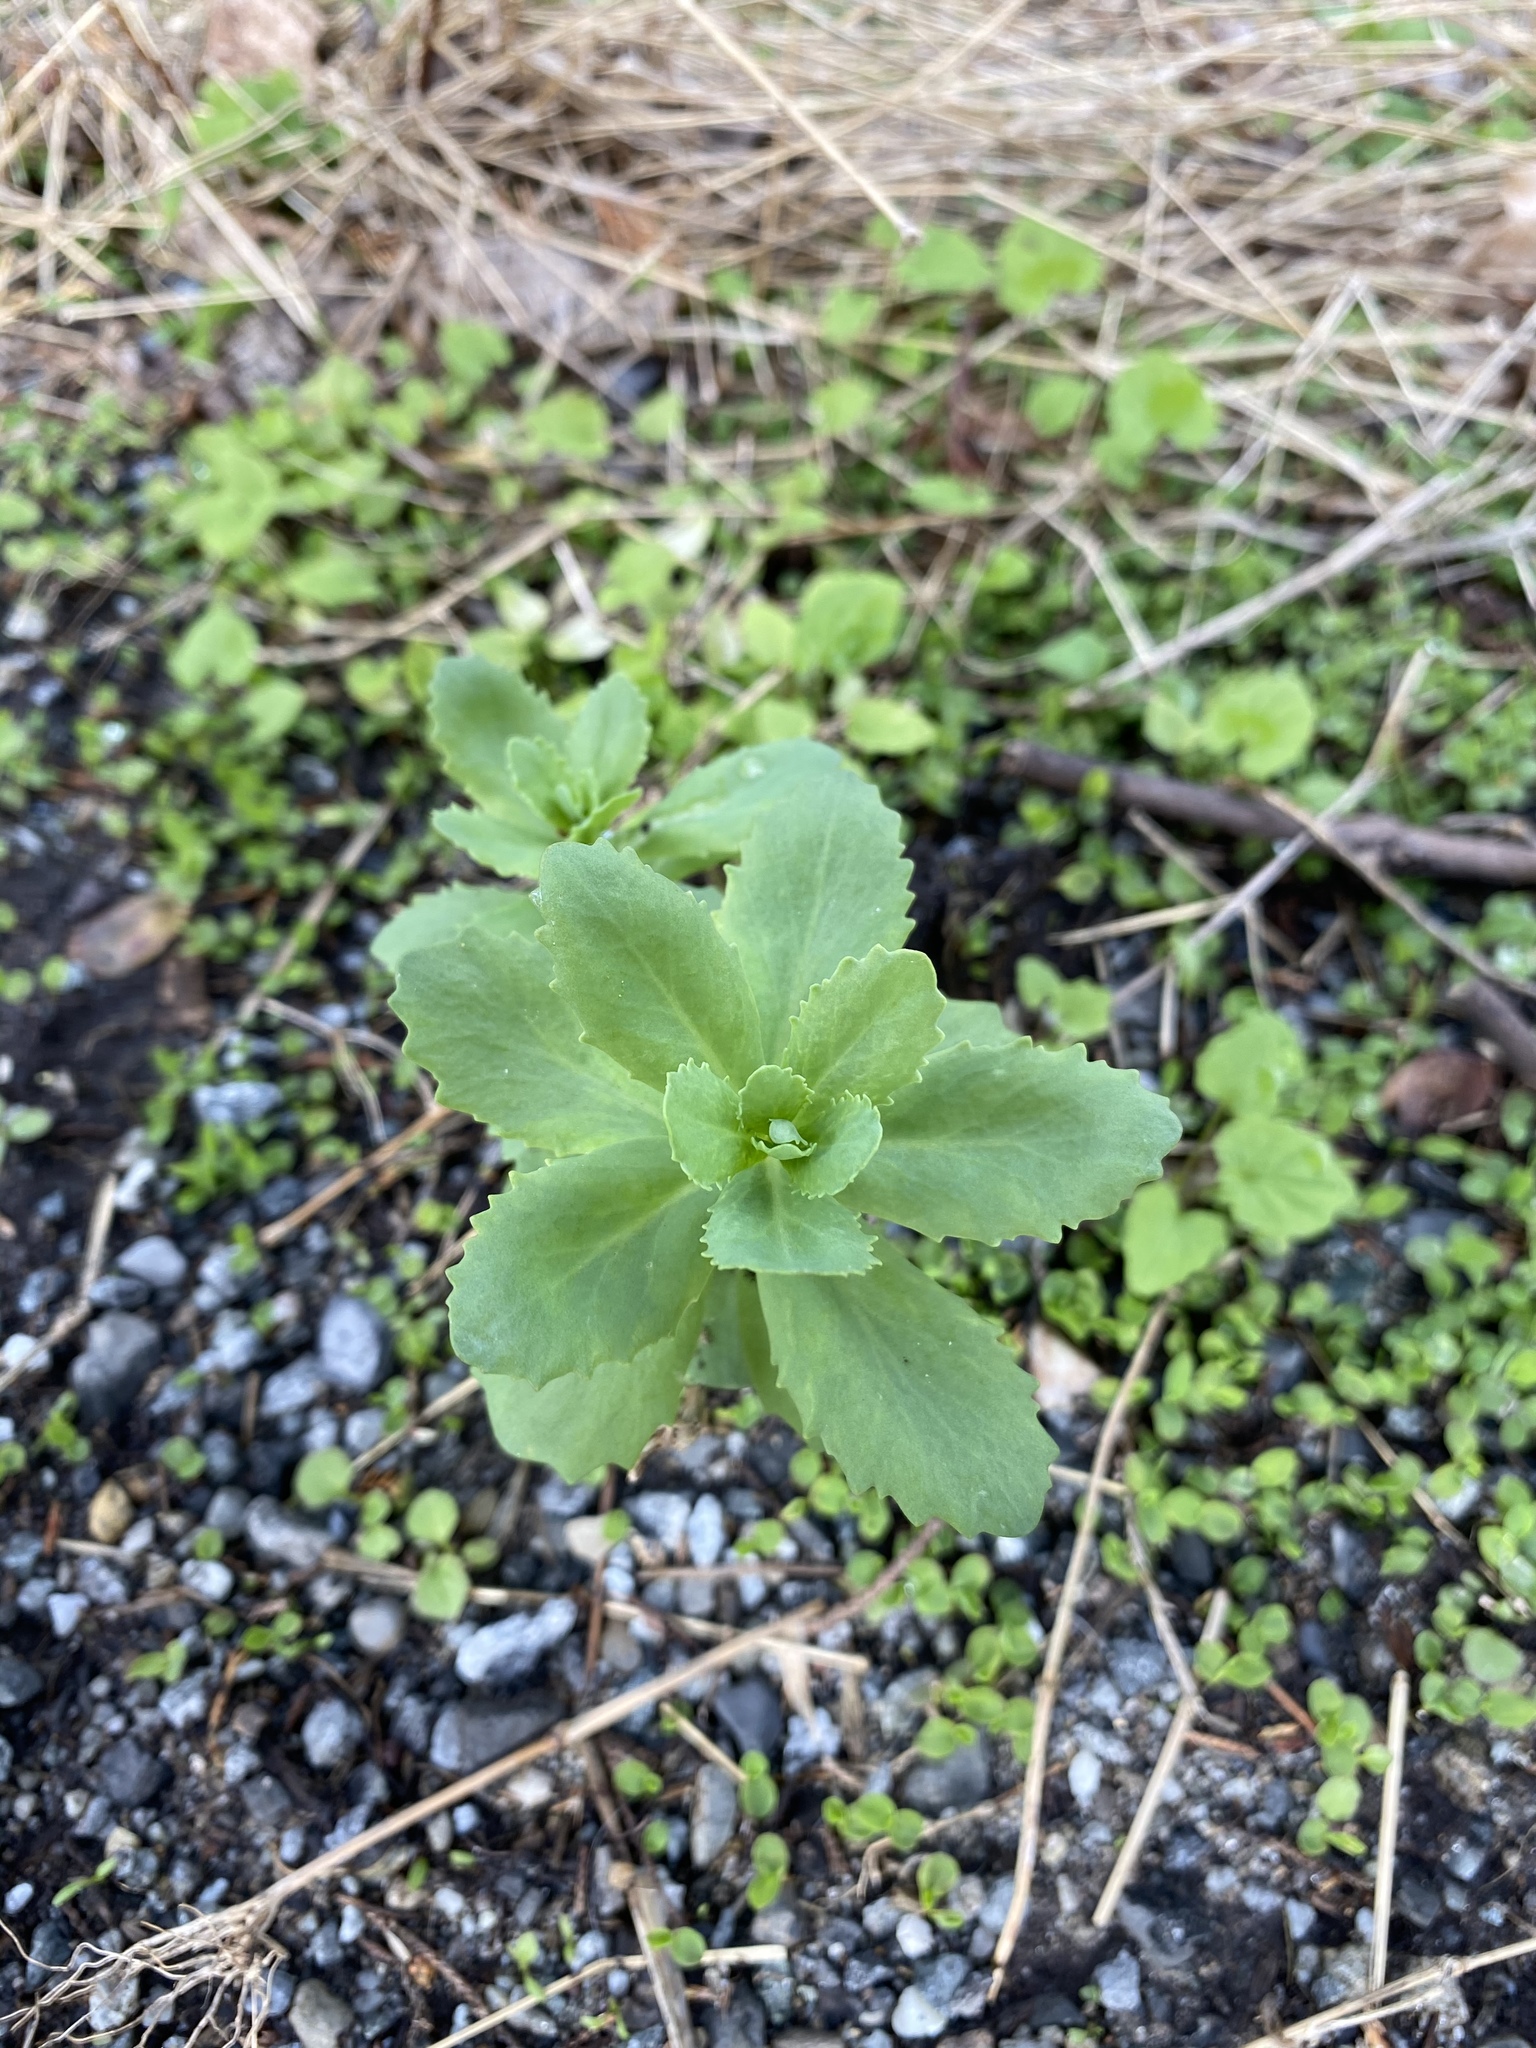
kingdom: Plantae
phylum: Tracheophyta
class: Magnoliopsida
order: Saxifragales
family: Crassulaceae
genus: Hylotelephium
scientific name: Hylotelephium telephium
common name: Live-forever
